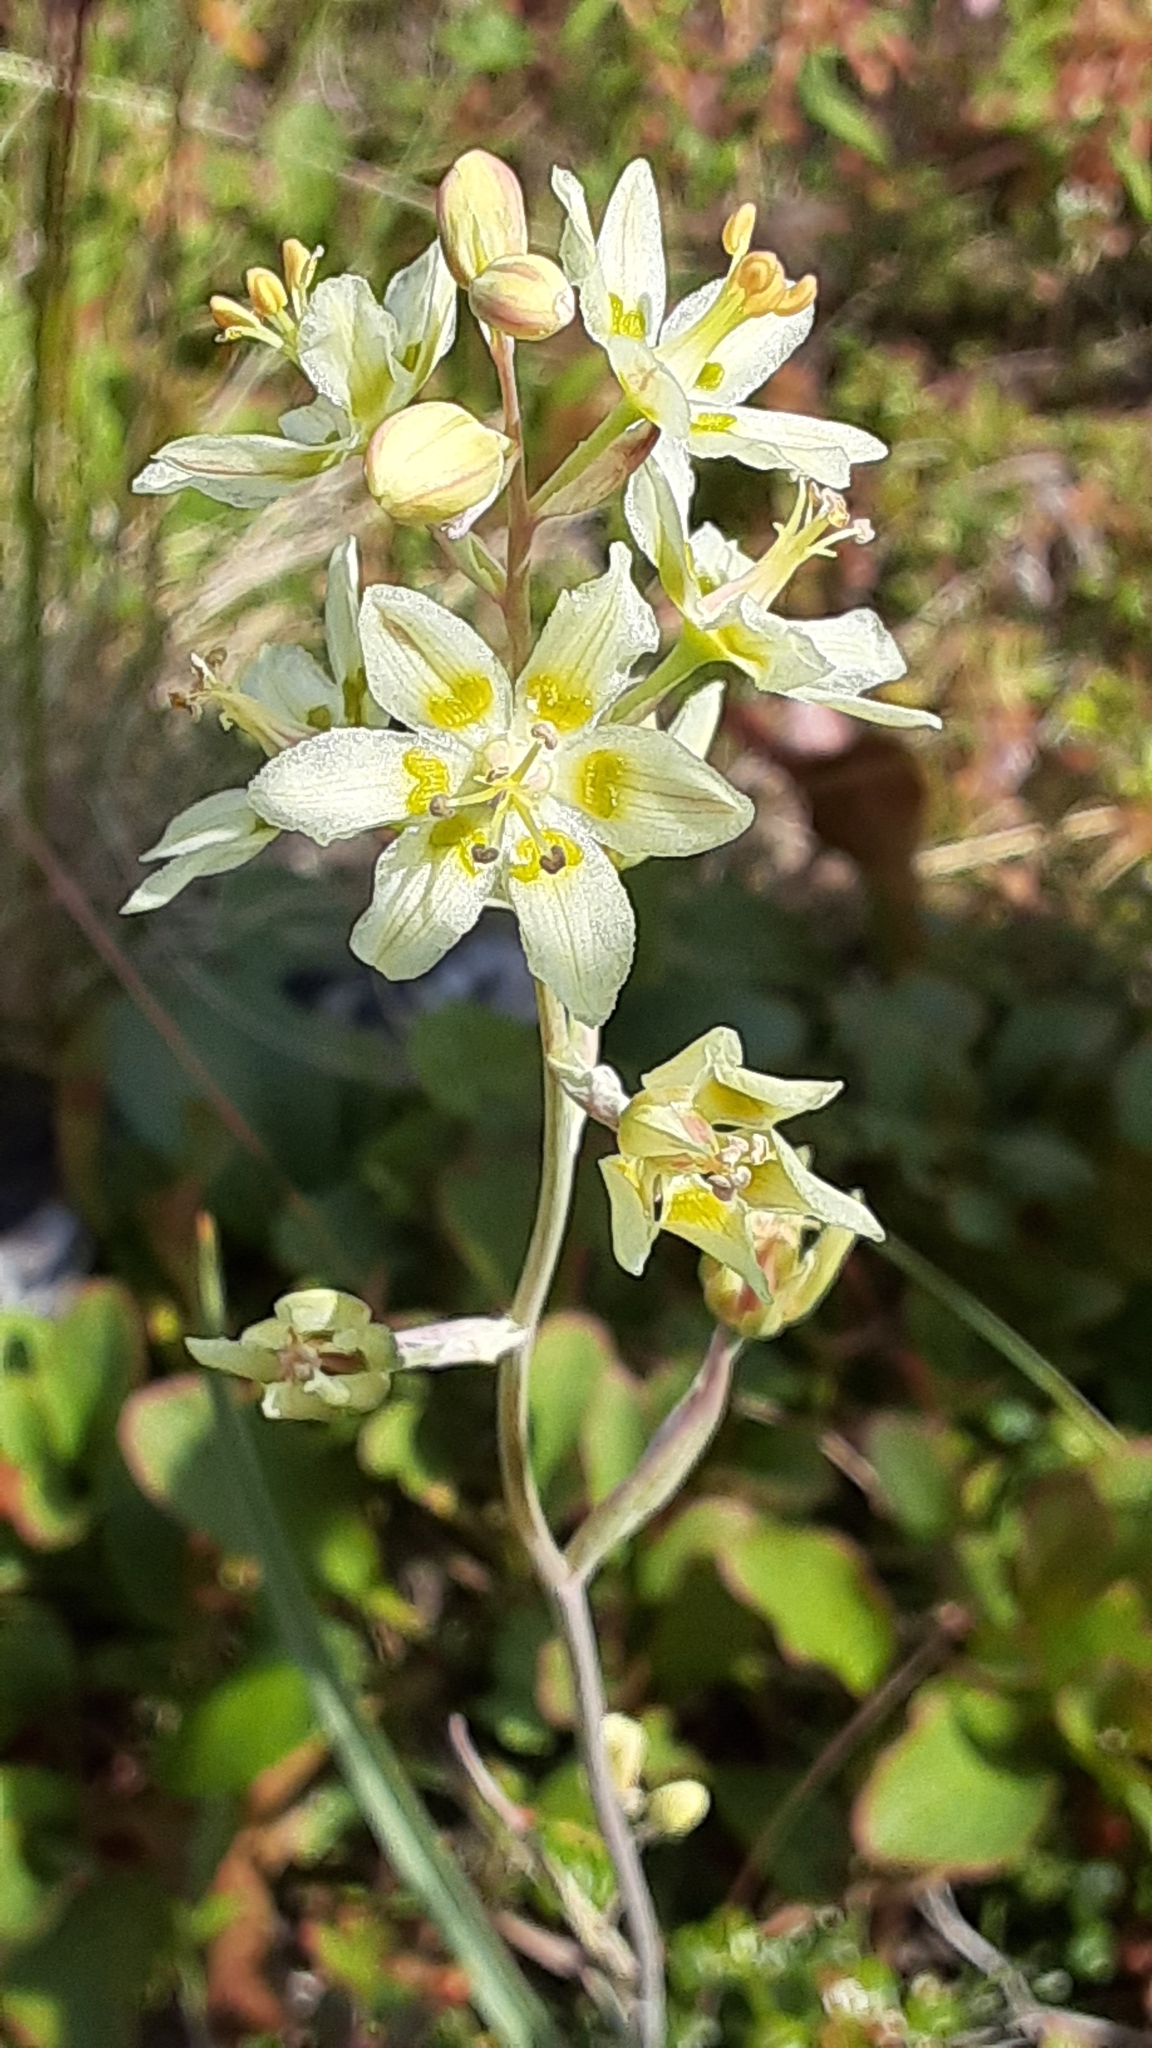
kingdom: Plantae
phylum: Tracheophyta
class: Liliopsida
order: Liliales
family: Melanthiaceae
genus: Anticlea
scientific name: Anticlea elegans
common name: Mountain death camas
